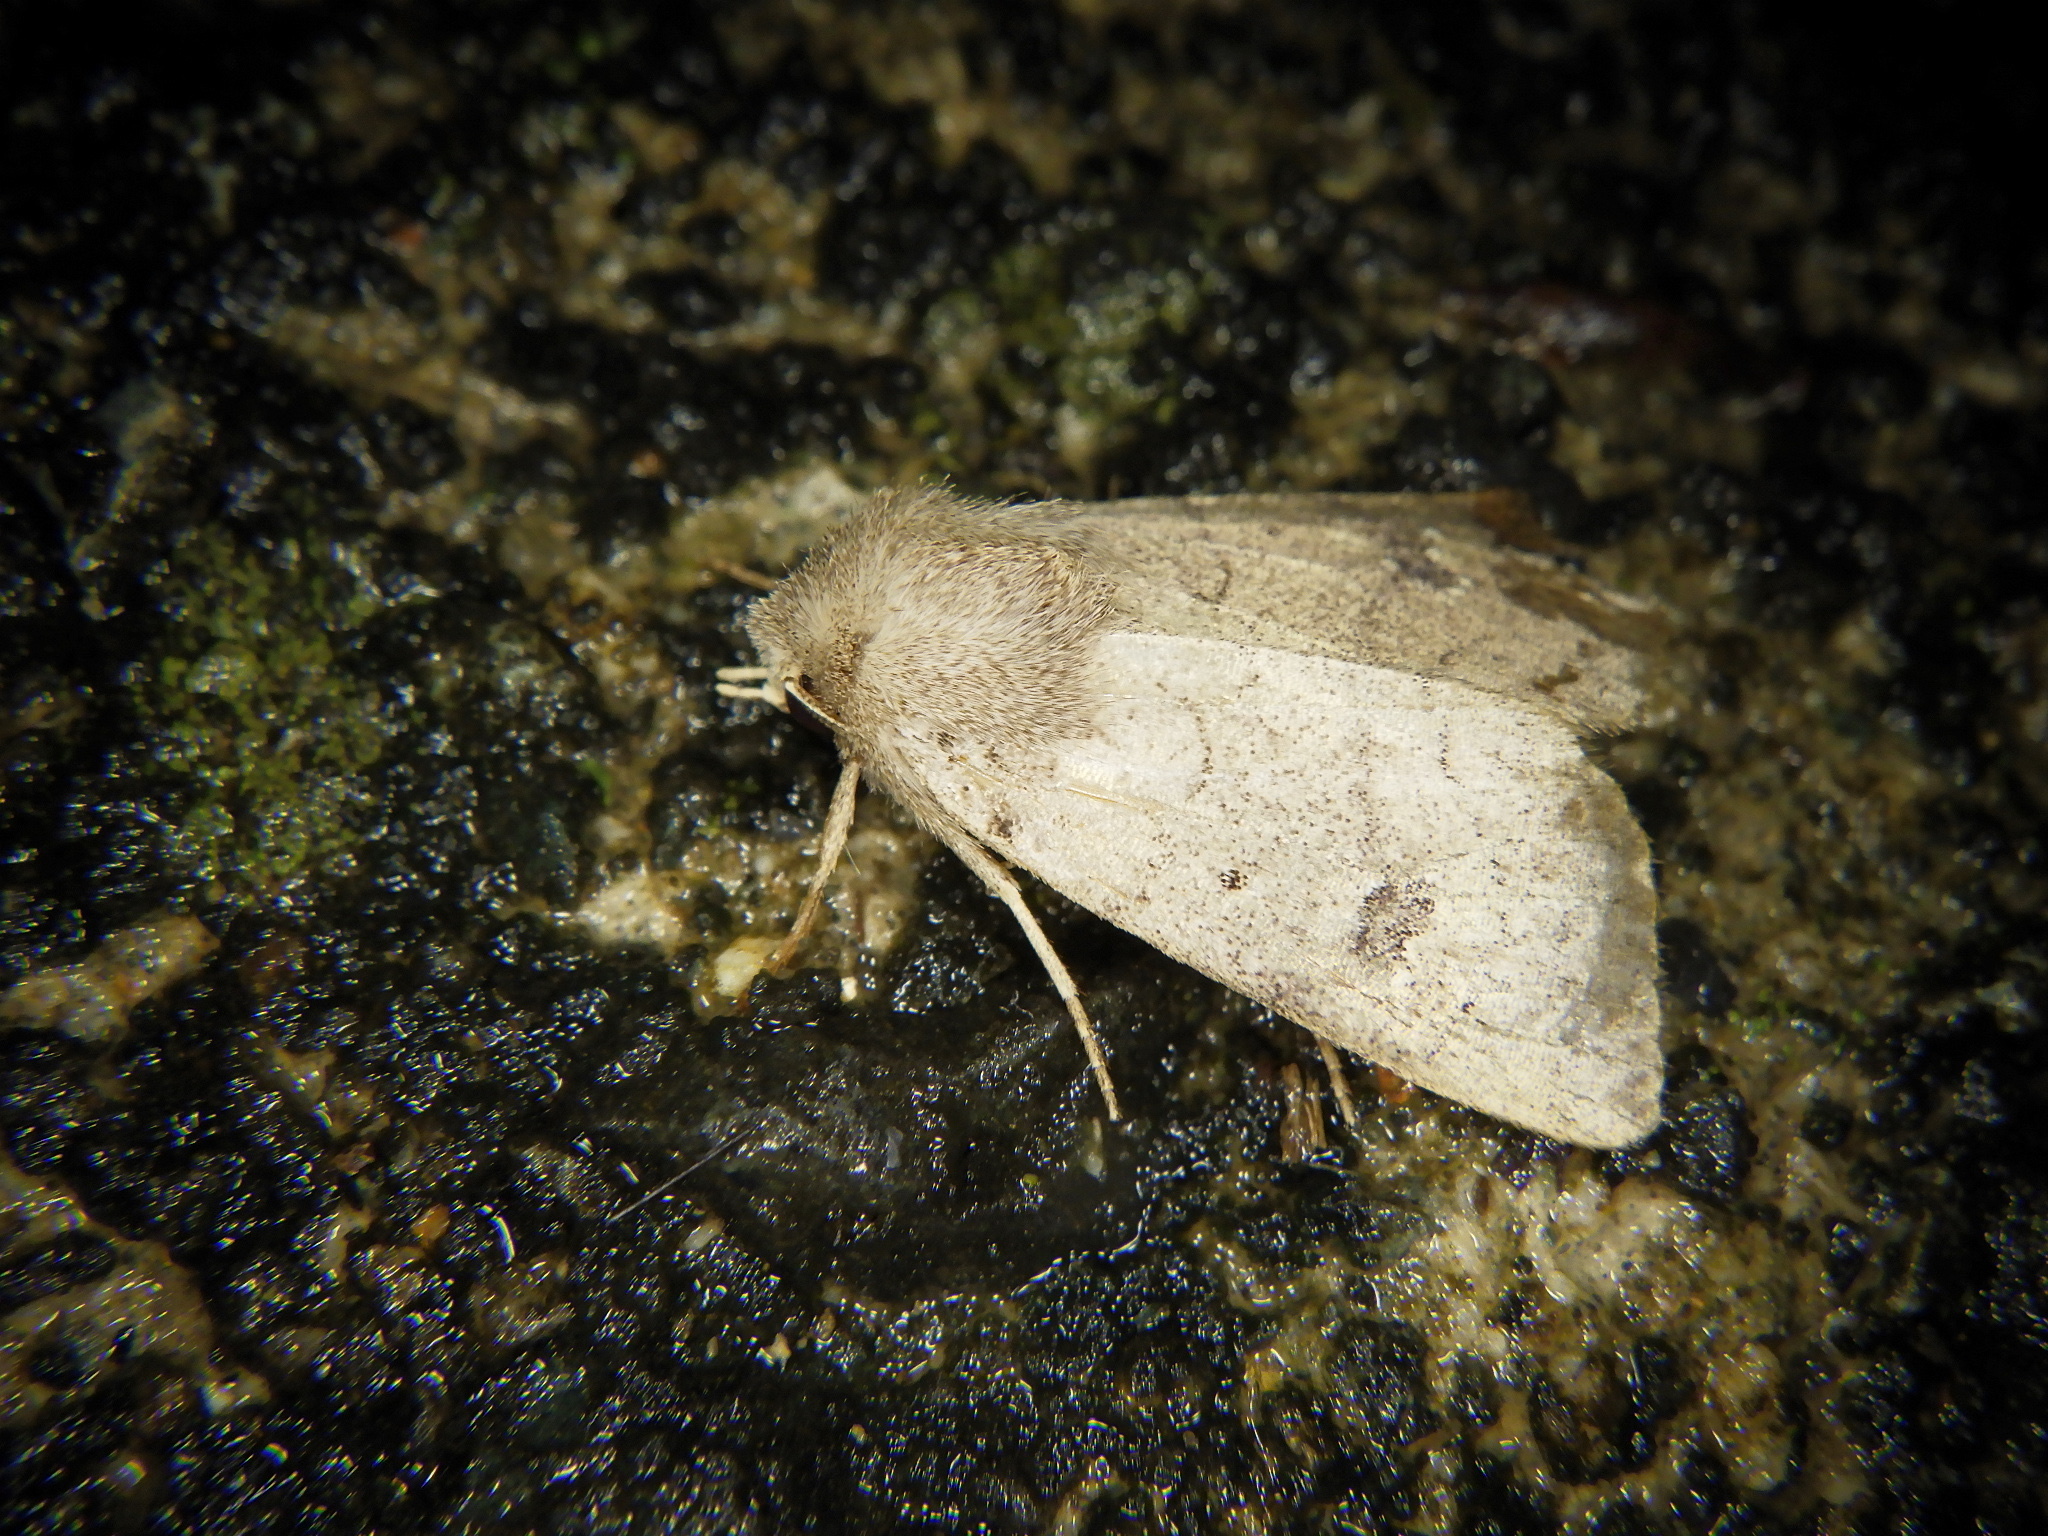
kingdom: Animalia
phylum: Arthropoda
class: Insecta
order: Lepidoptera
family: Noctuidae
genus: Athetis
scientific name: Athetis cinerascens
